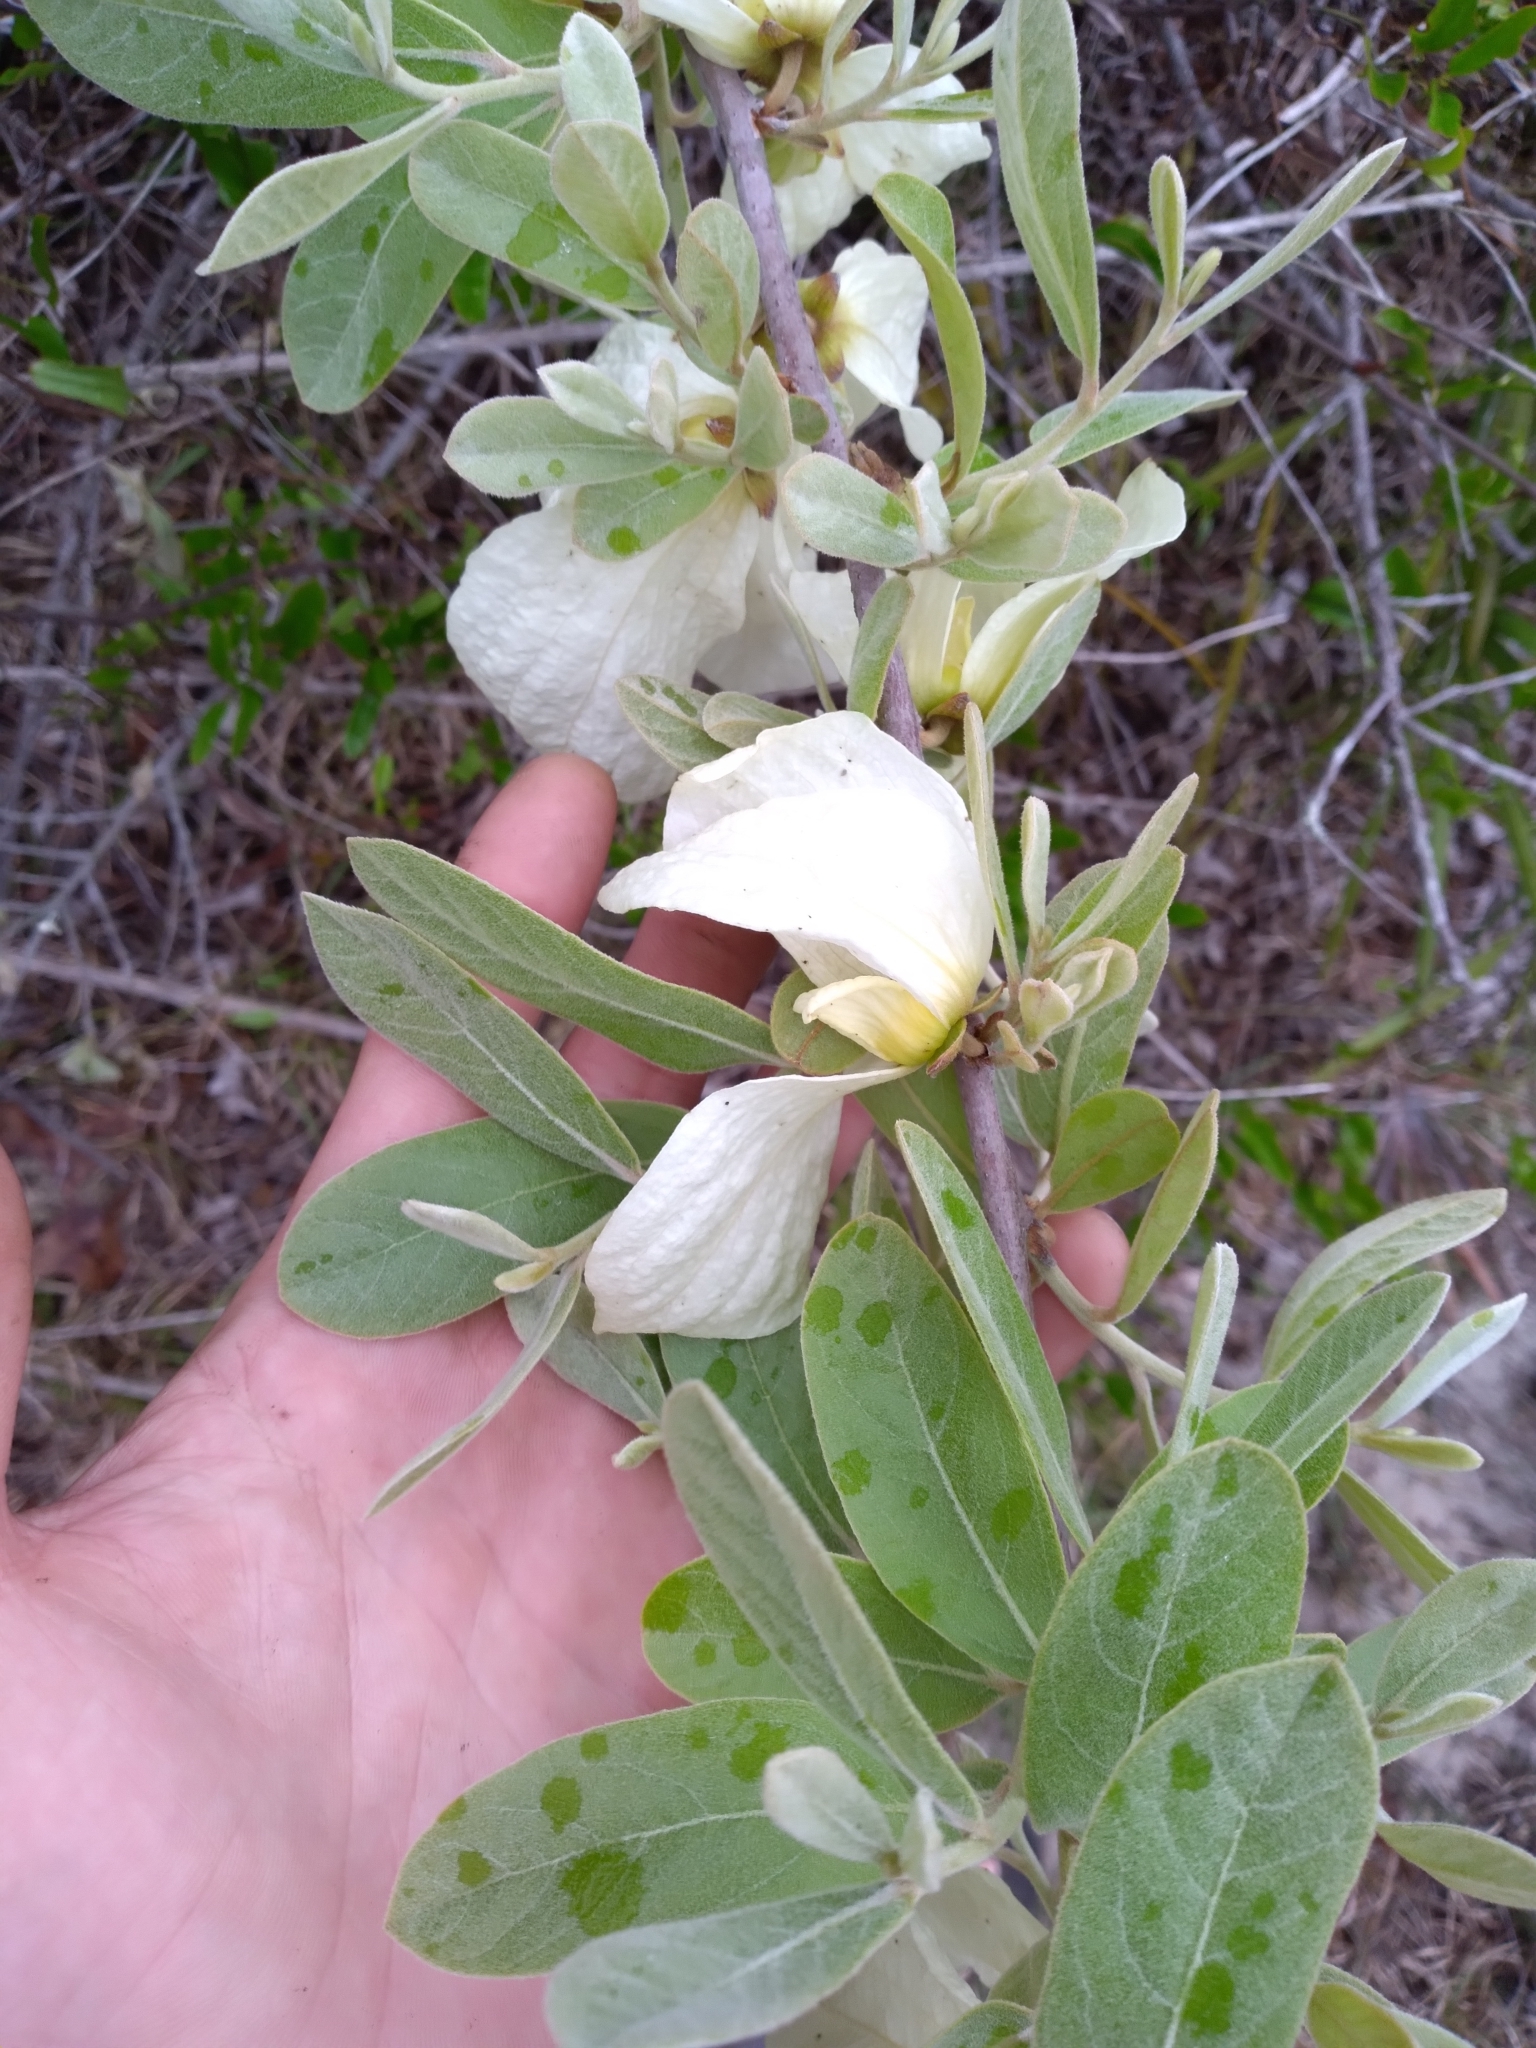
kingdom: Plantae
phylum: Tracheophyta
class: Magnoliopsida
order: Magnoliales
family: Annonaceae
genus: Asimina
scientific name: Asimina speciosa
